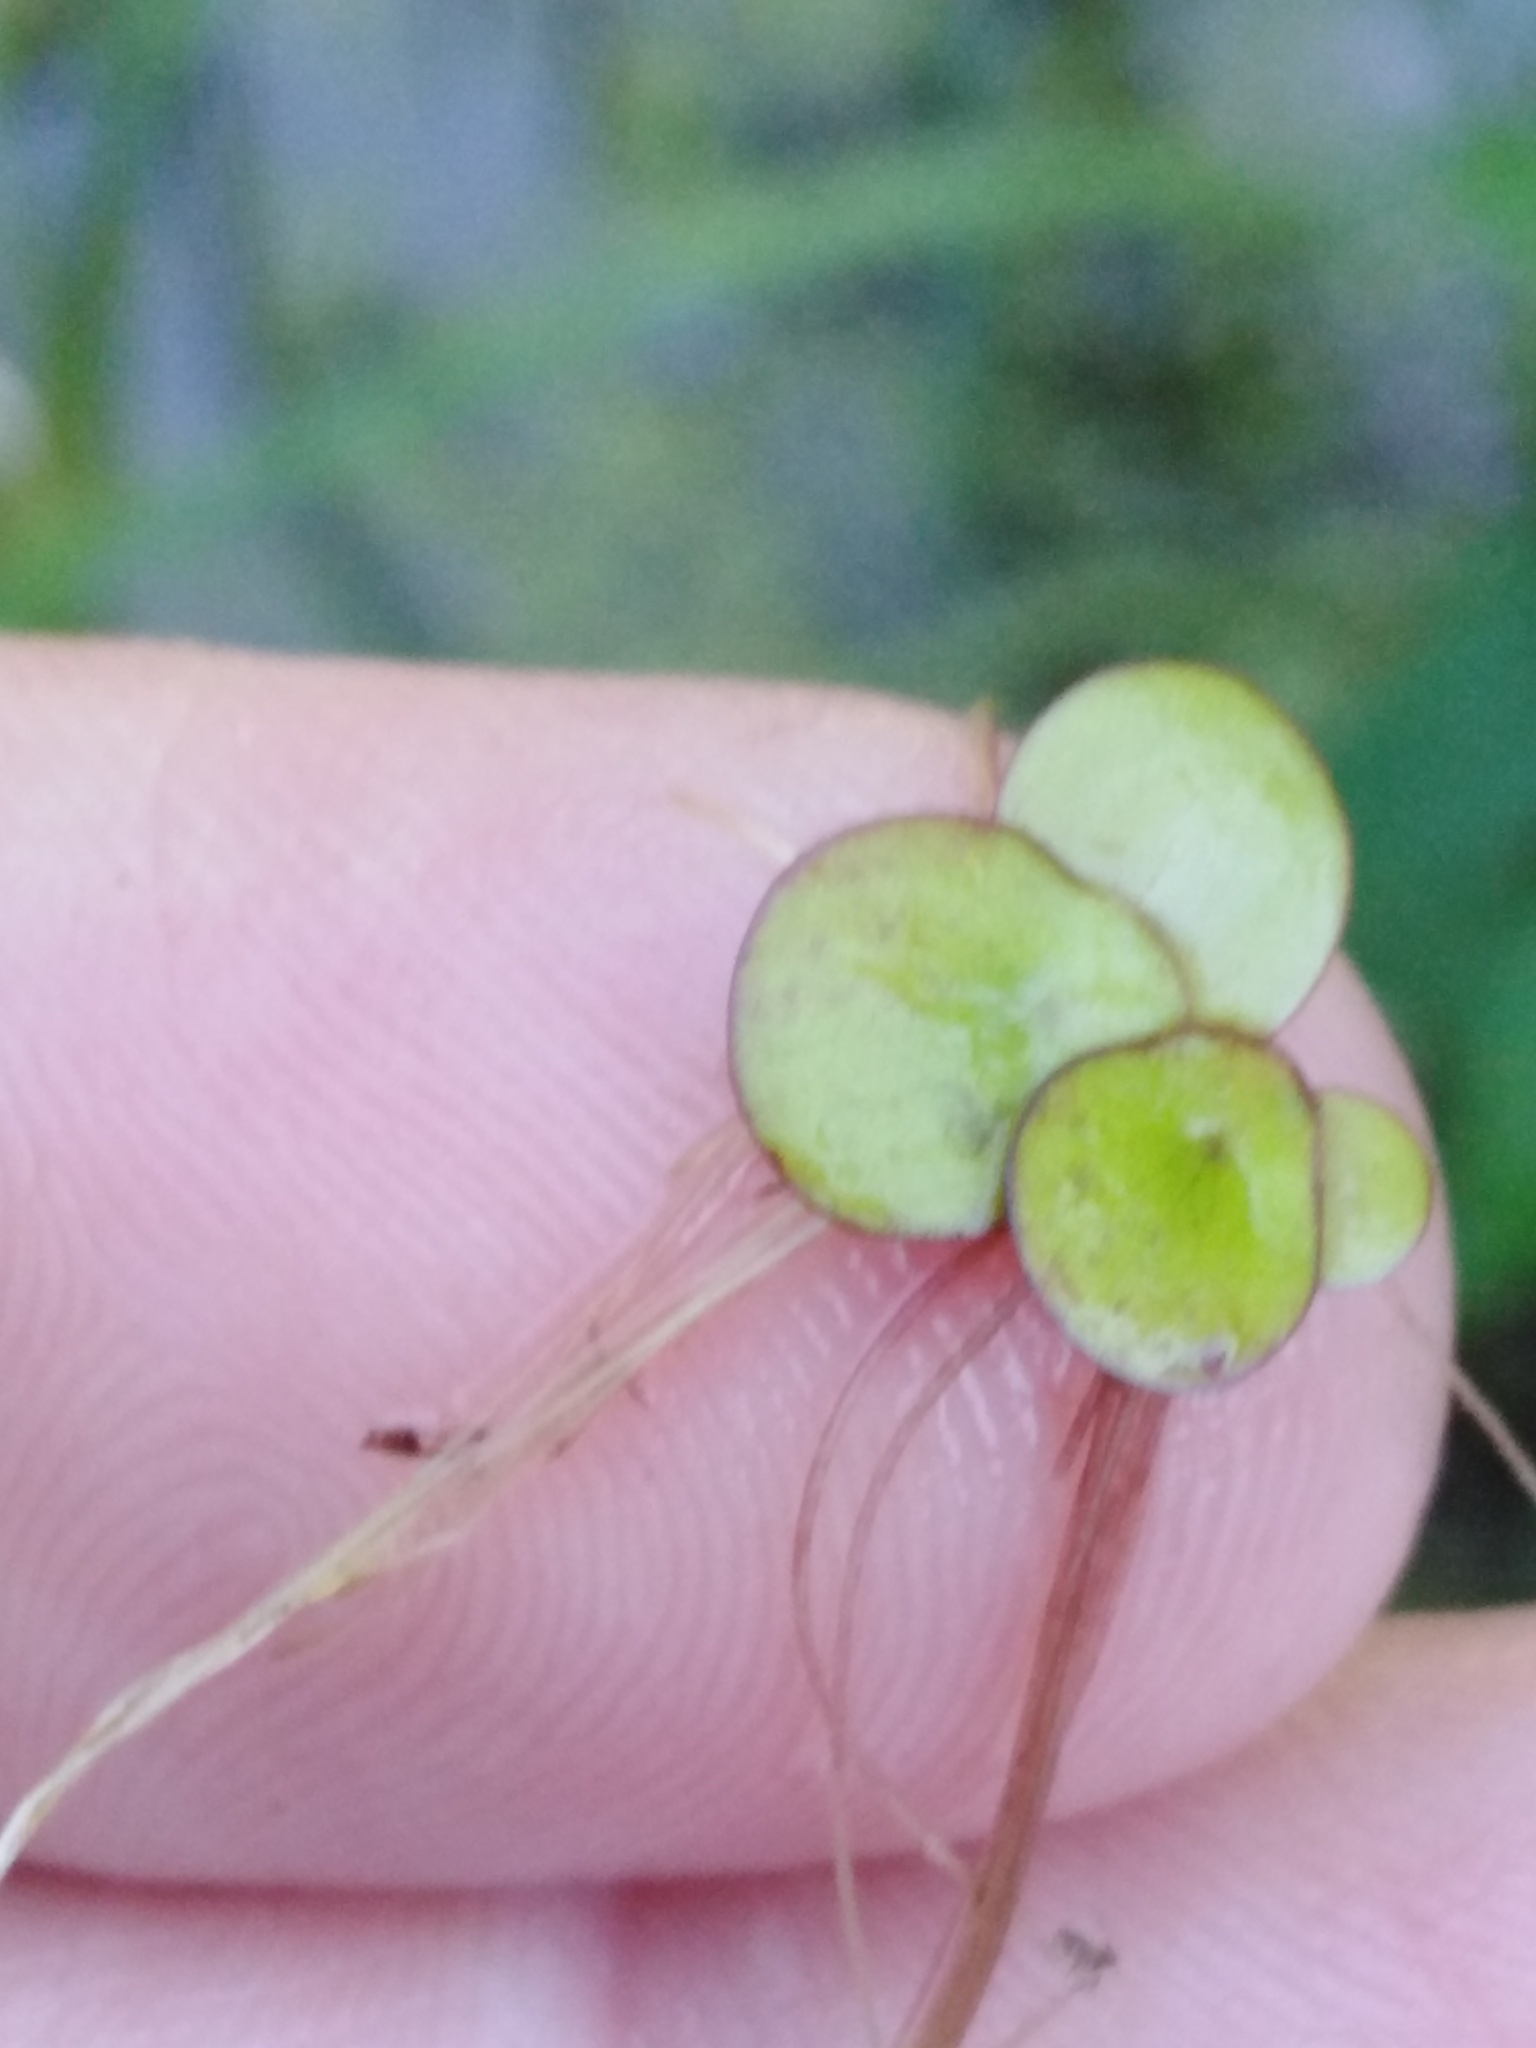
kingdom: Plantae
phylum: Tracheophyta
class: Liliopsida
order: Alismatales
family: Araceae
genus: Spirodela
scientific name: Spirodela polyrhiza
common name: Great duckweed
